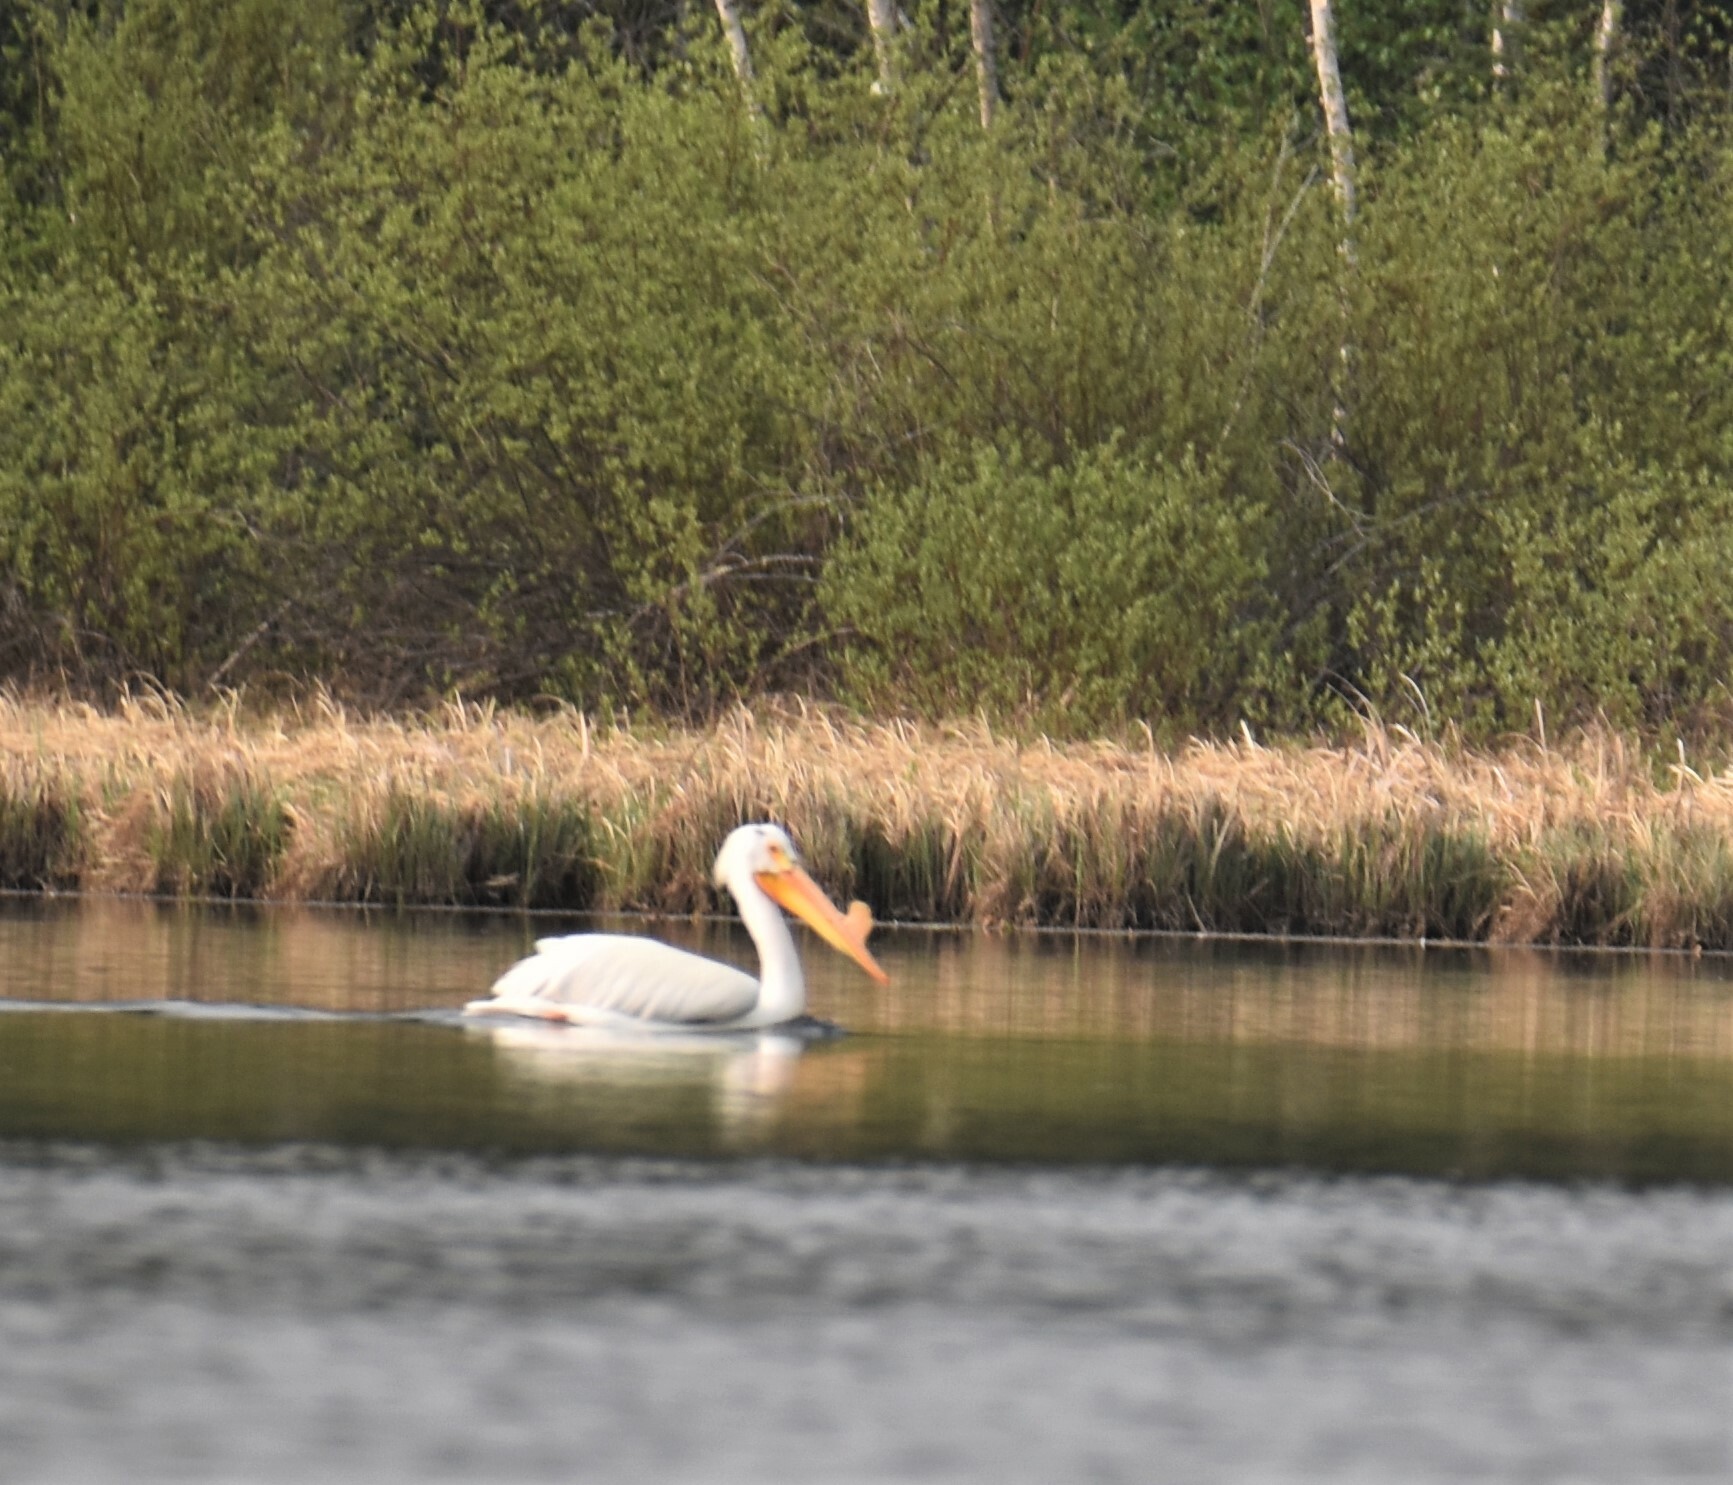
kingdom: Animalia
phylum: Chordata
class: Aves
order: Pelecaniformes
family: Pelecanidae
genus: Pelecanus
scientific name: Pelecanus erythrorhynchos
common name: American white pelican
